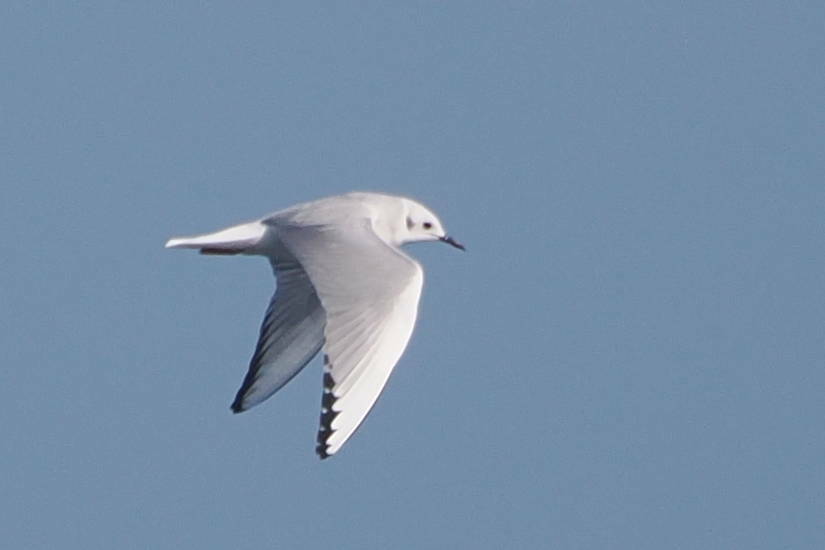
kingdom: Animalia
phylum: Chordata
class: Aves
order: Charadriiformes
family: Laridae
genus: Chroicocephalus
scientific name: Chroicocephalus philadelphia
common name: Bonaparte's gull
